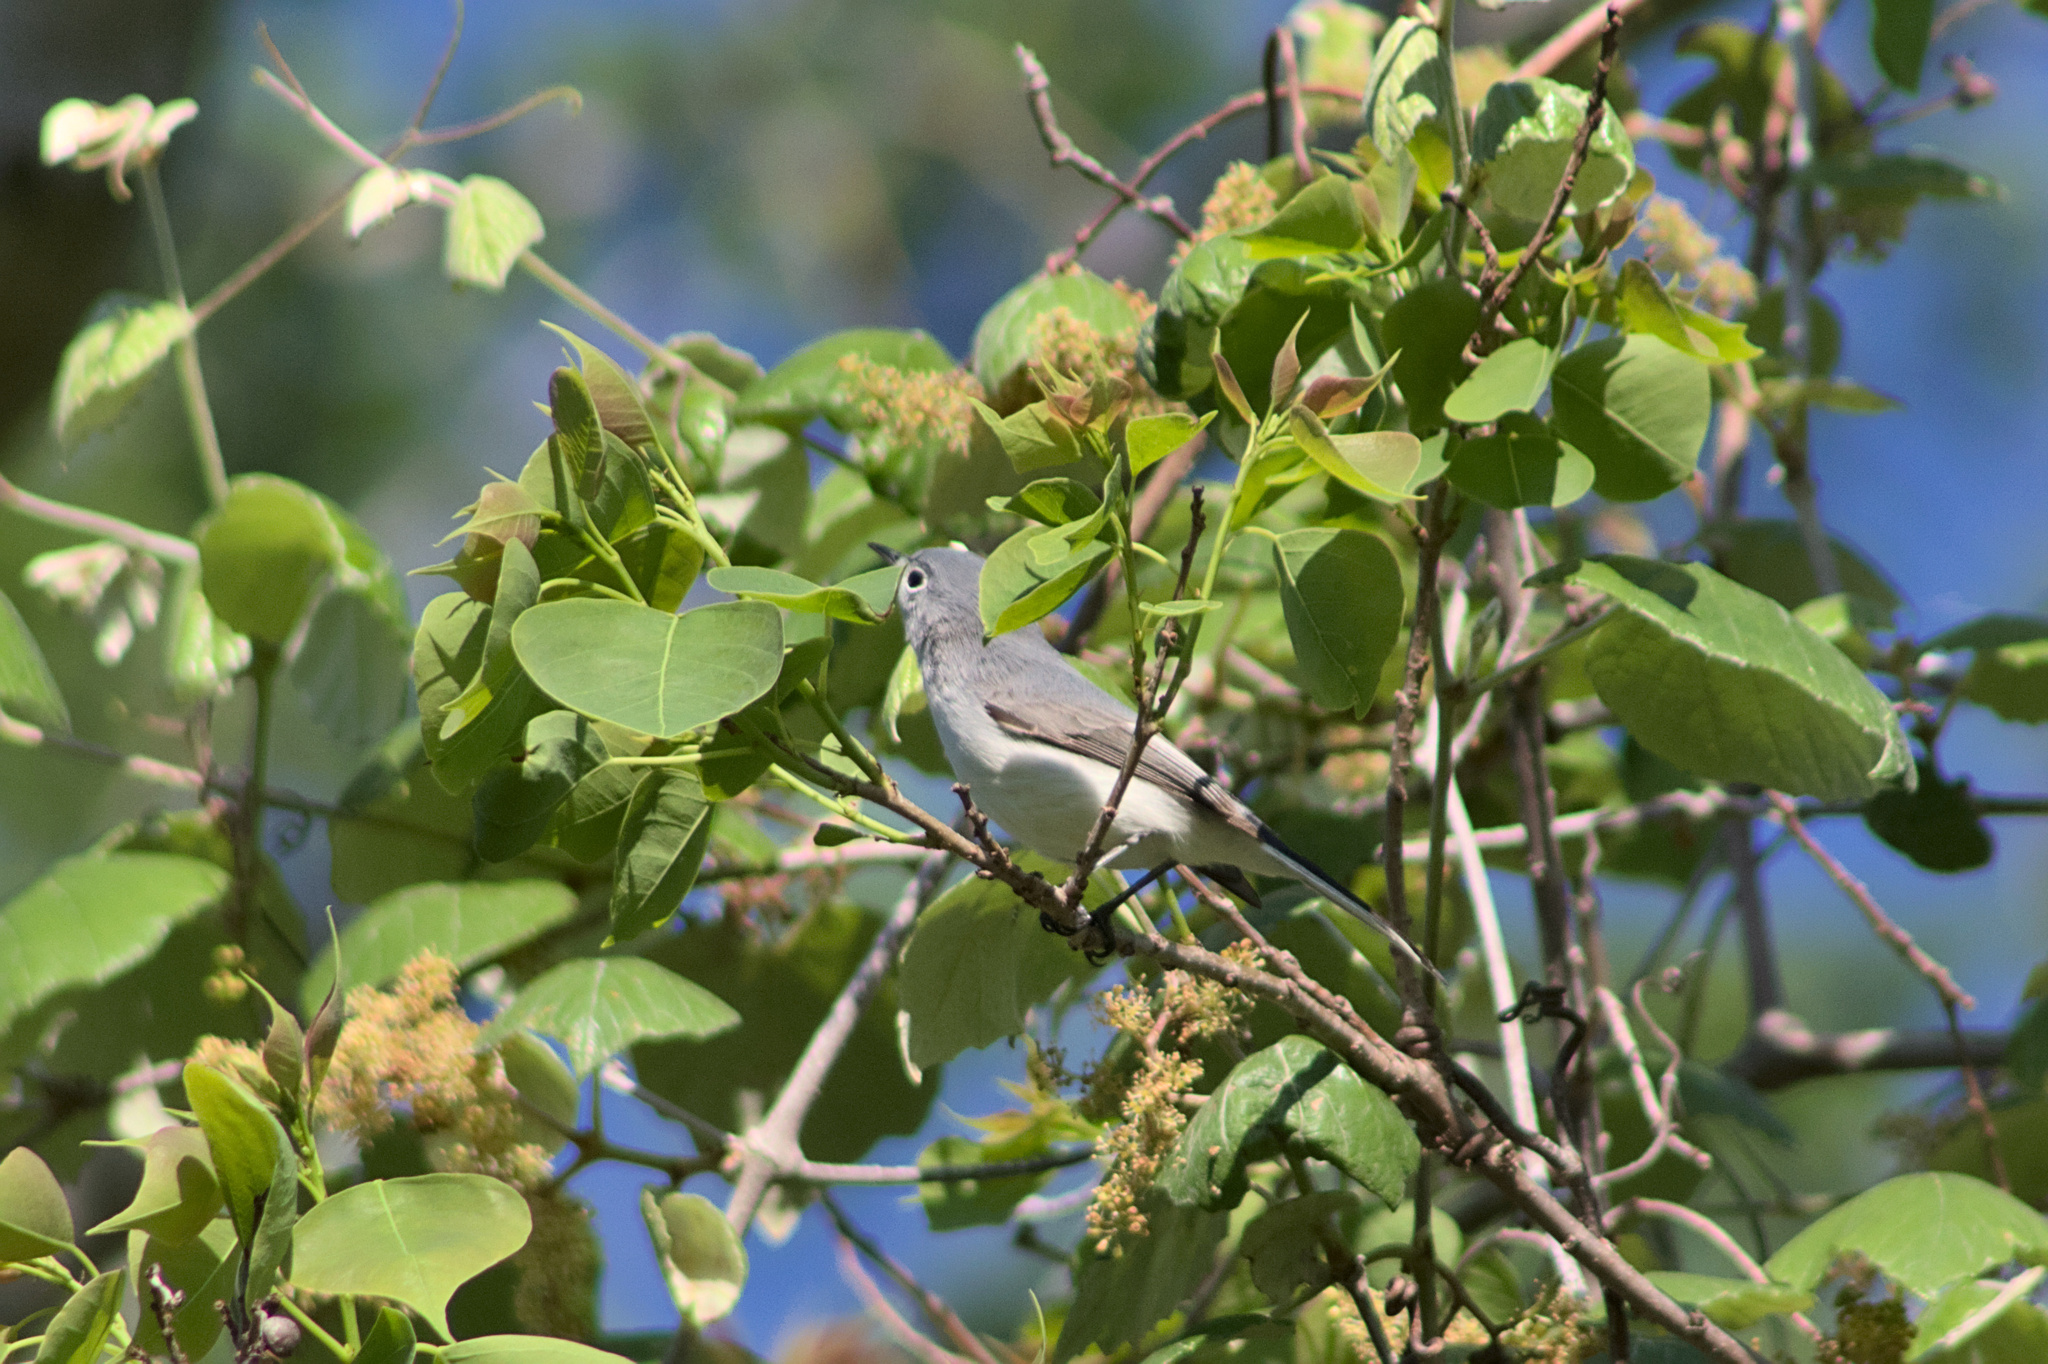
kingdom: Animalia
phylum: Chordata
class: Aves
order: Passeriformes
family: Polioptilidae
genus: Polioptila
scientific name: Polioptila caerulea
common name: Blue-gray gnatcatcher
